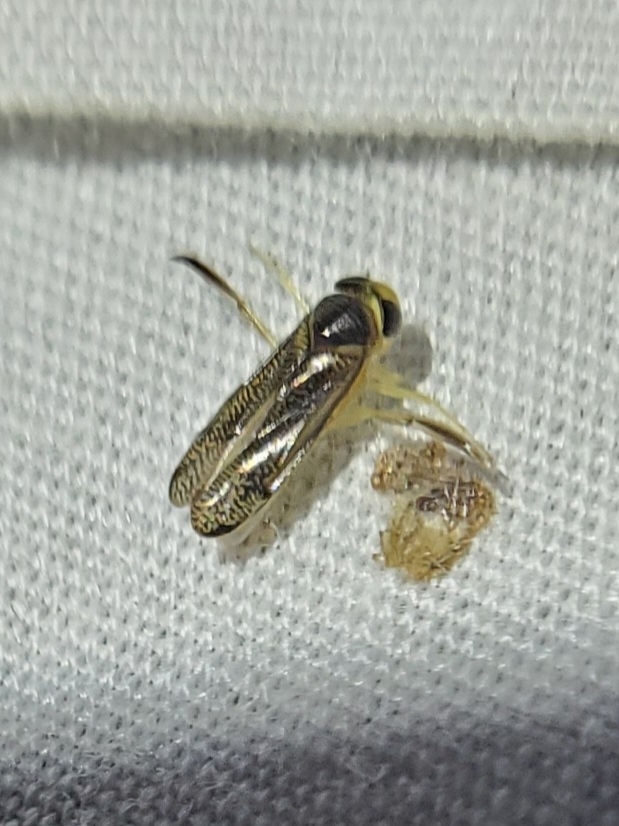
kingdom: Animalia
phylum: Arthropoda
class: Insecta
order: Hemiptera
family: Corixidae
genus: Trichocorixa
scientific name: Trichocorixa
